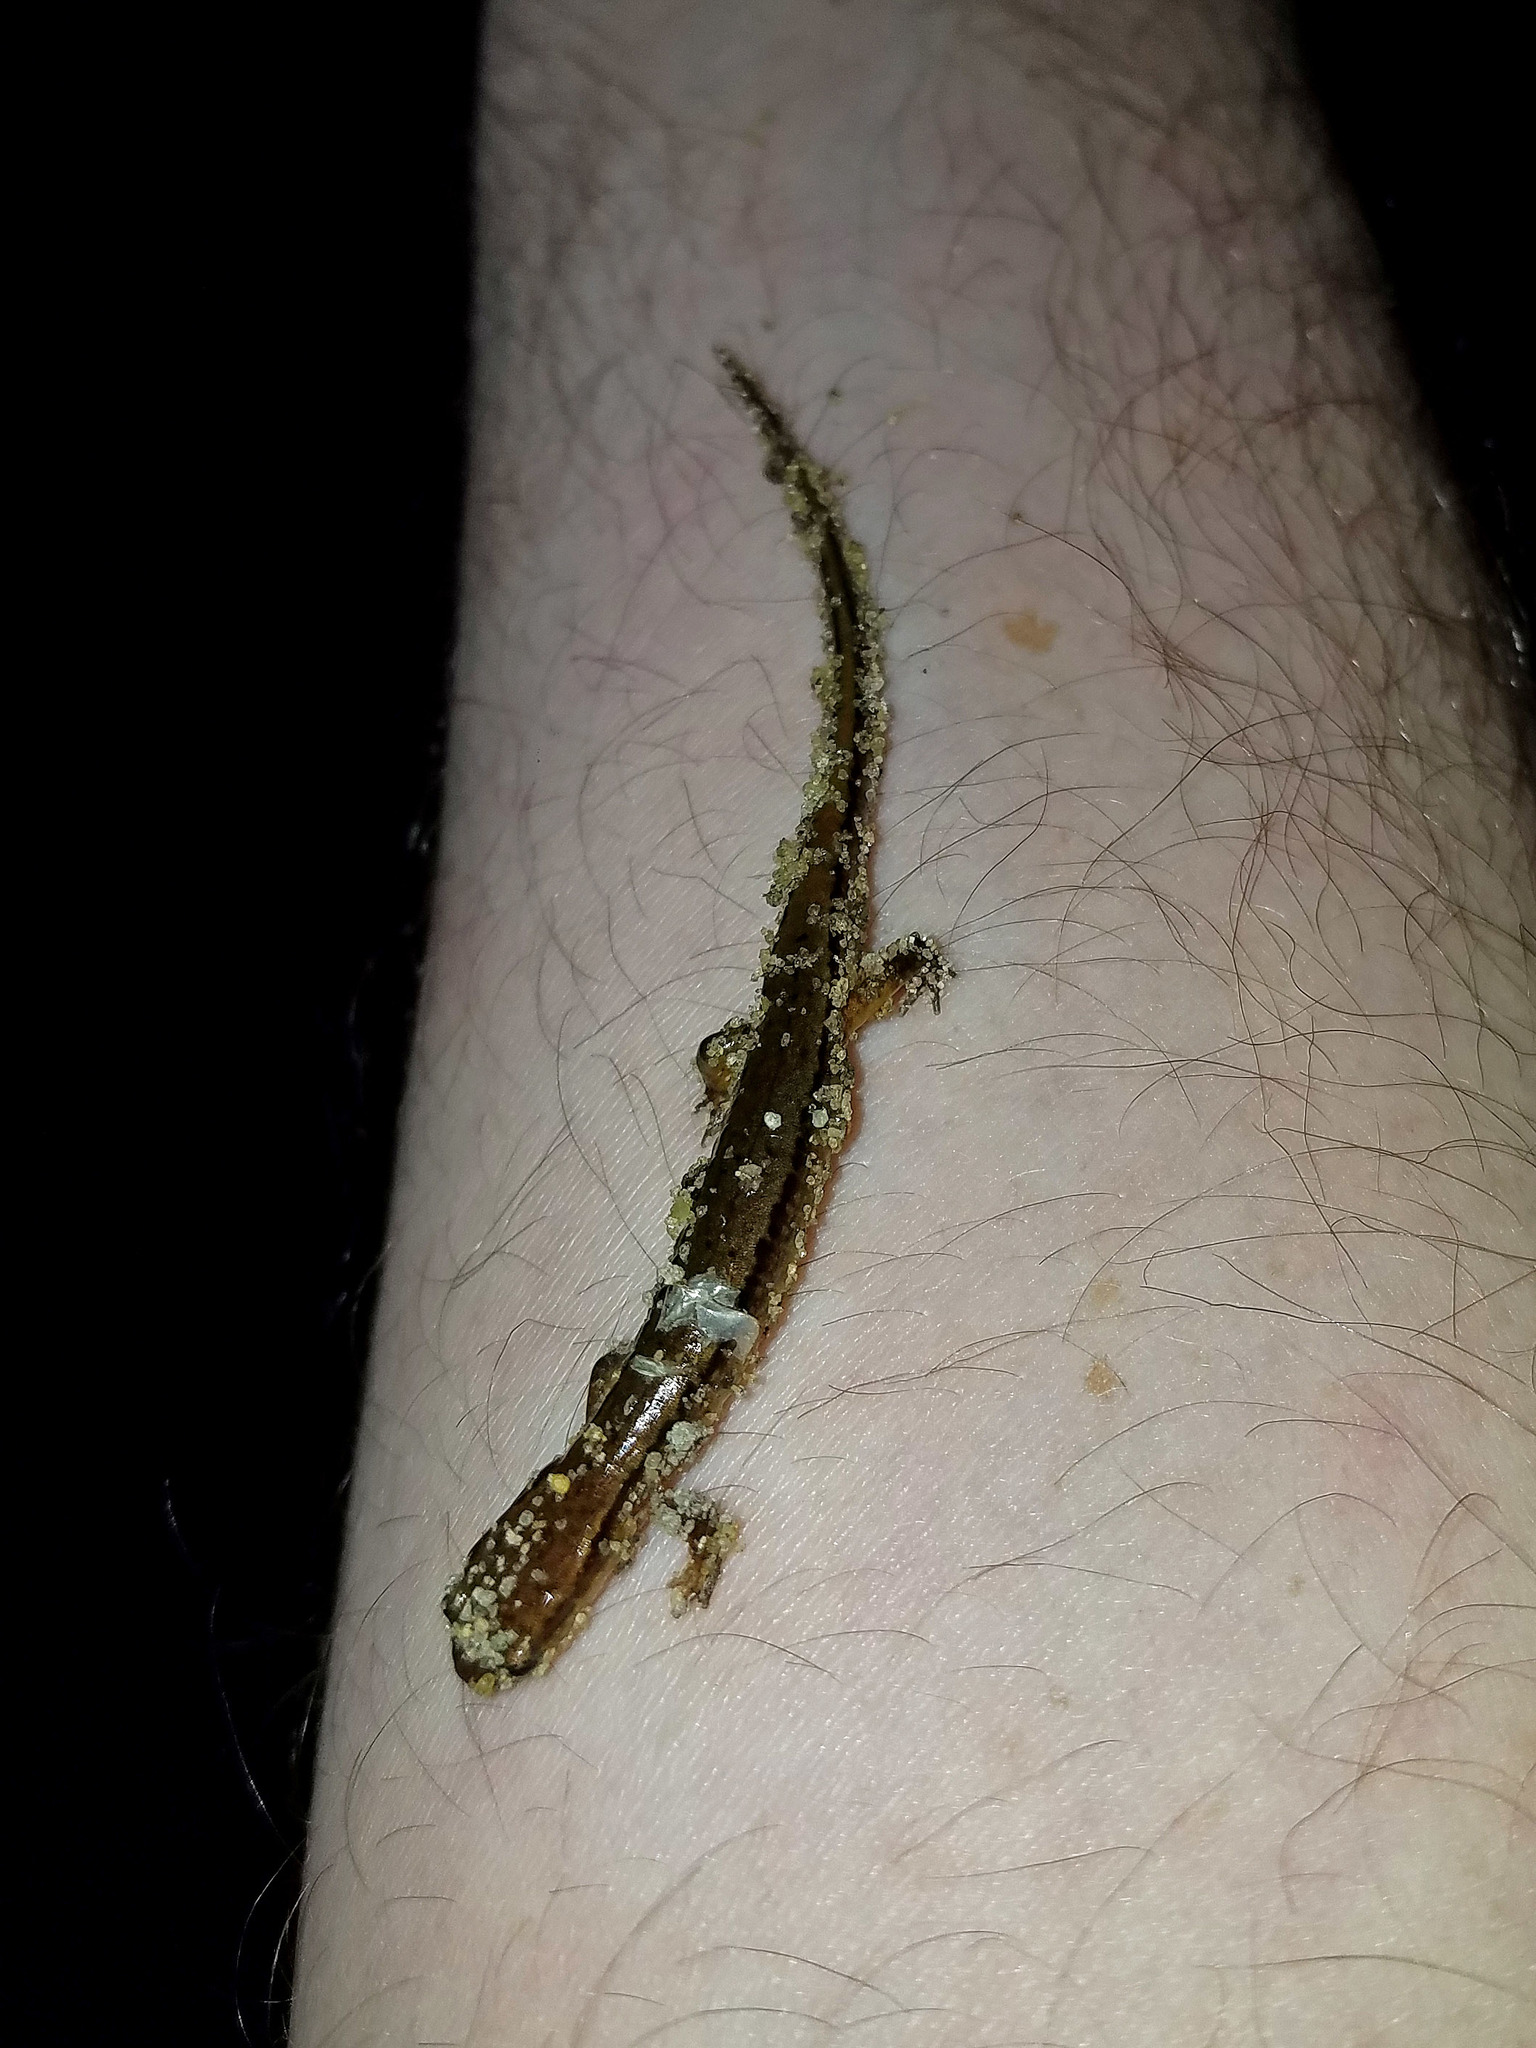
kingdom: Animalia
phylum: Chordata
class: Amphibia
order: Caudata
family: Plethodontidae
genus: Eurycea
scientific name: Eurycea bislineata
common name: Northern two-lined salamander
